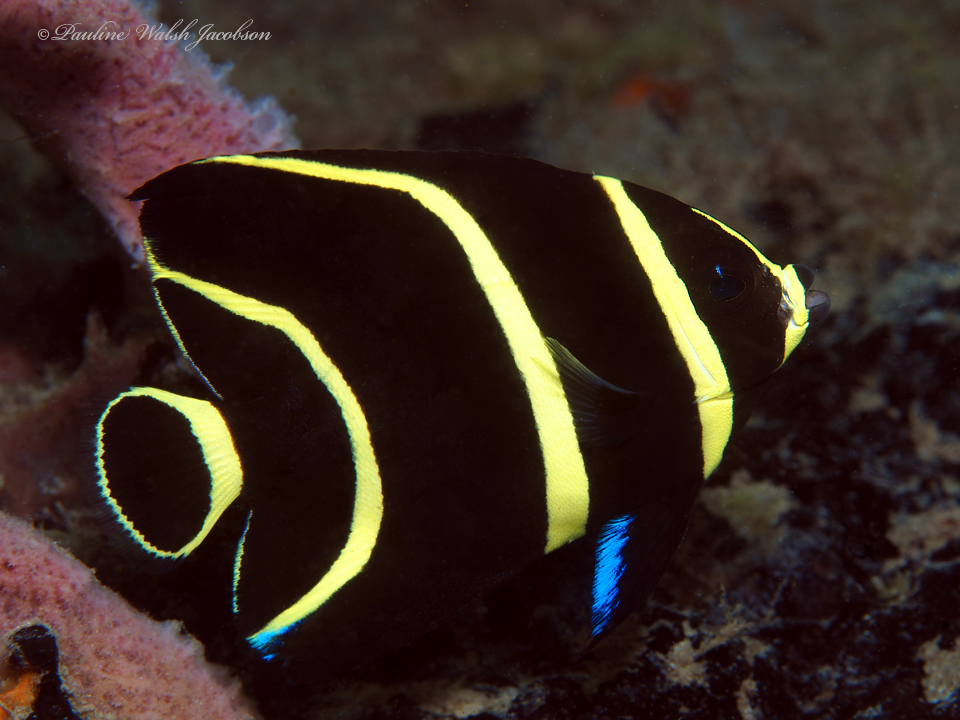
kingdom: Animalia
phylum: Chordata
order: Perciformes
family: Pomacanthidae
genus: Pomacanthus
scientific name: Pomacanthus paru
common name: French angelfish
